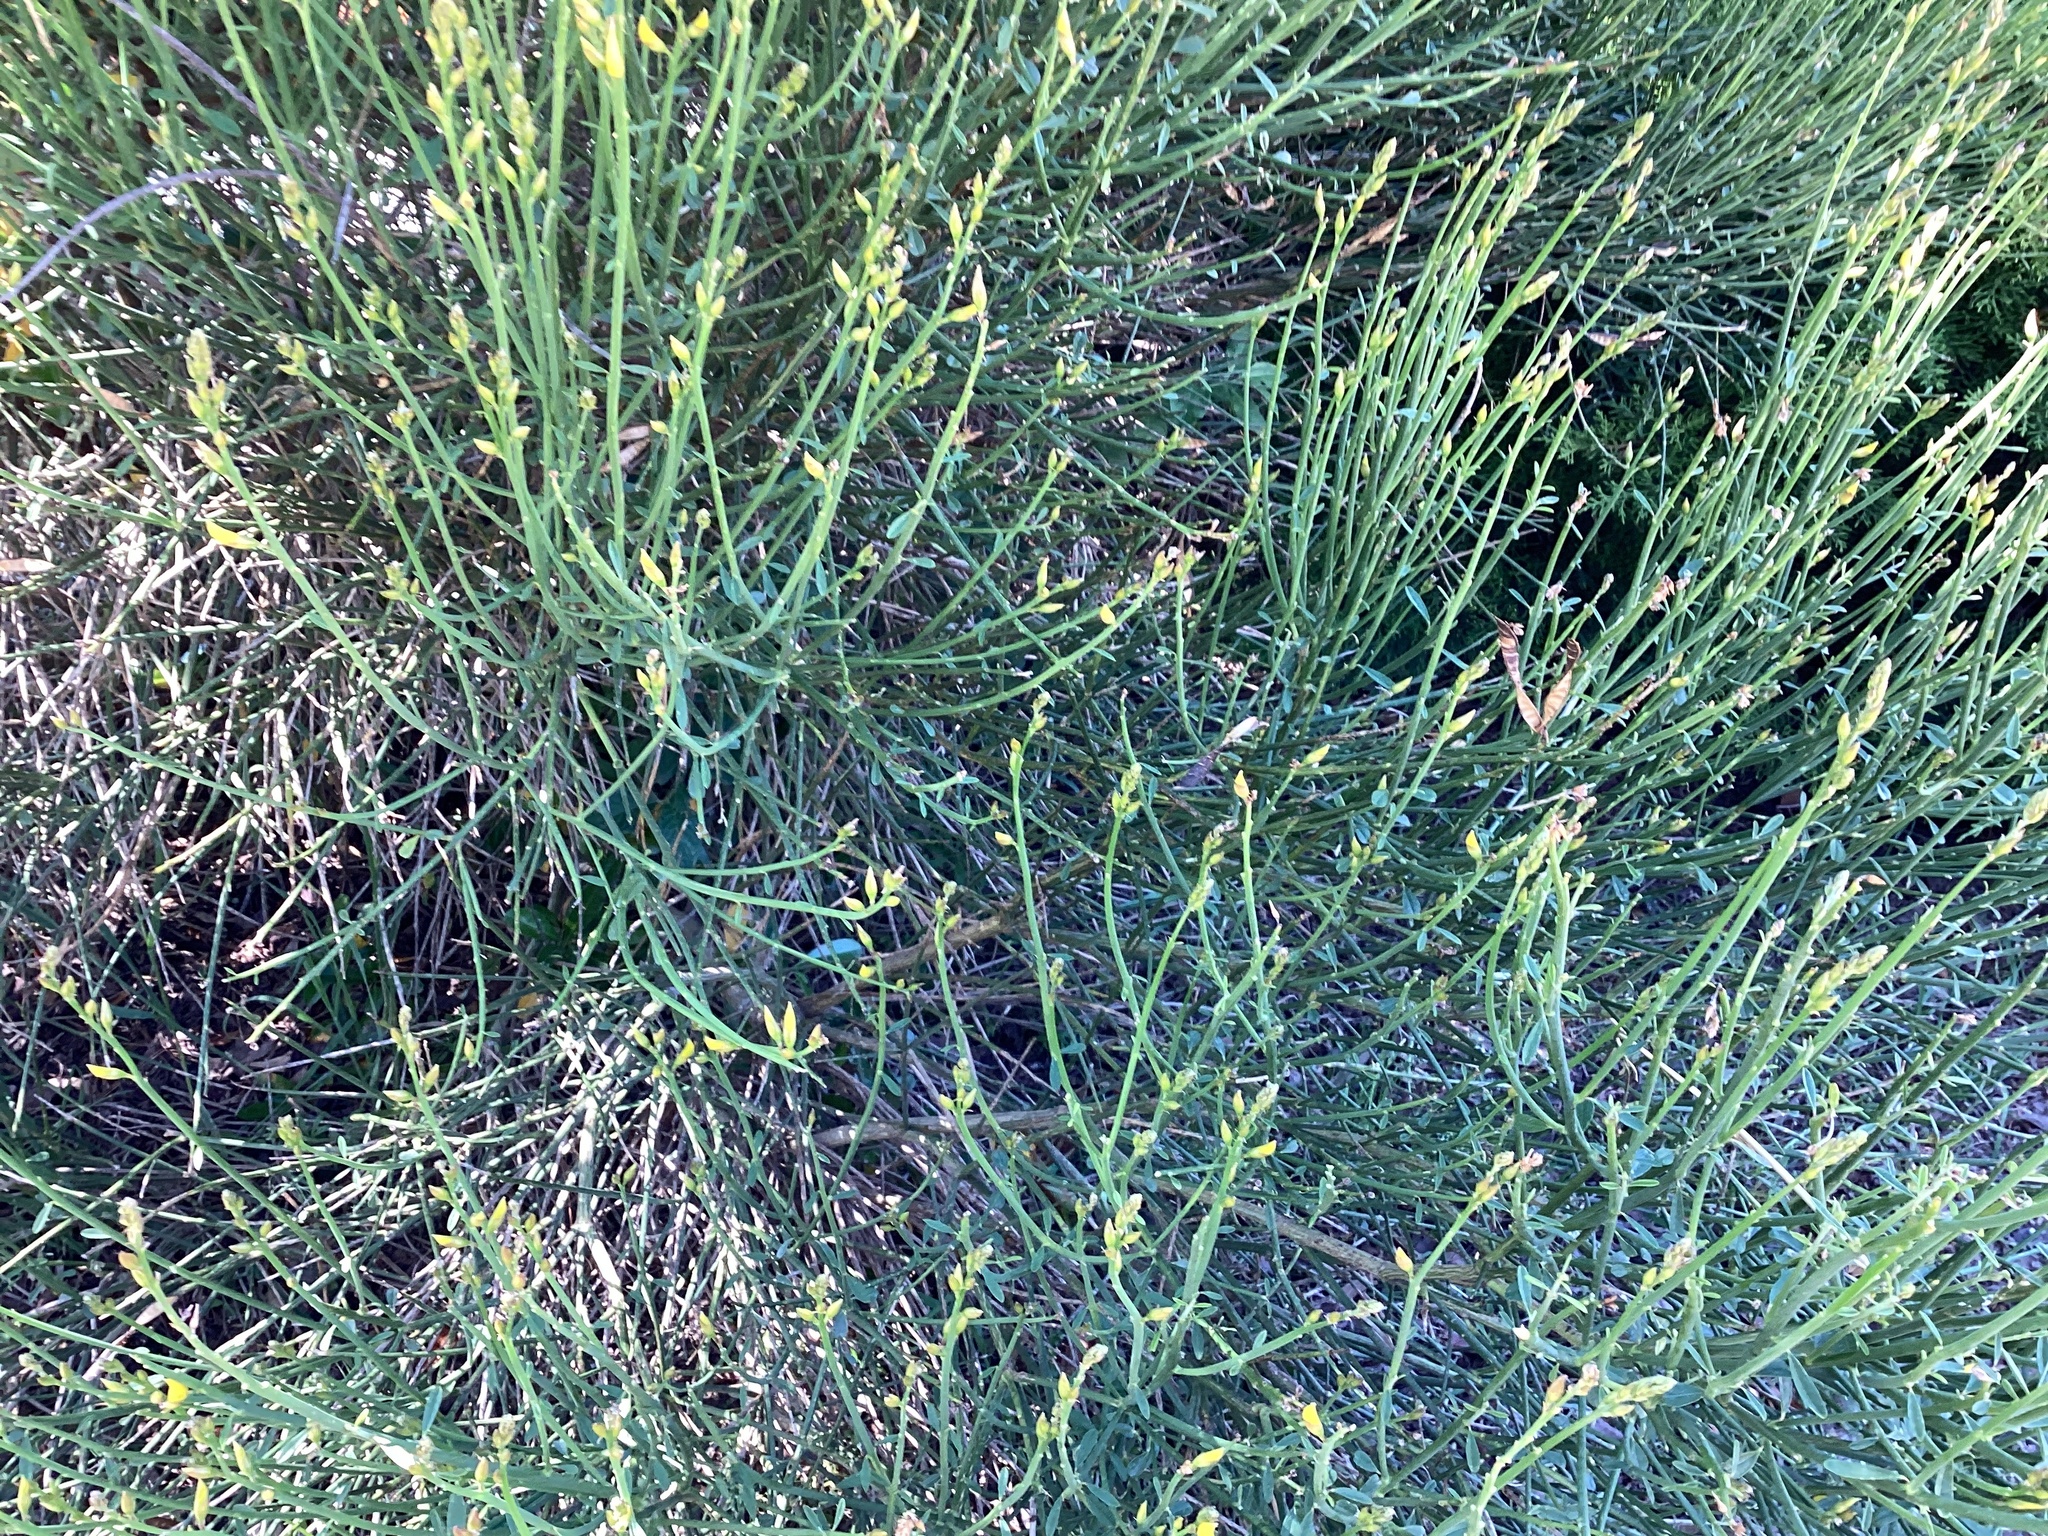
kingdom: Plantae
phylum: Tracheophyta
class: Magnoliopsida
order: Fabales
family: Fabaceae
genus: Cytisus
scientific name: Cytisus scoparius
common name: Scotch broom
